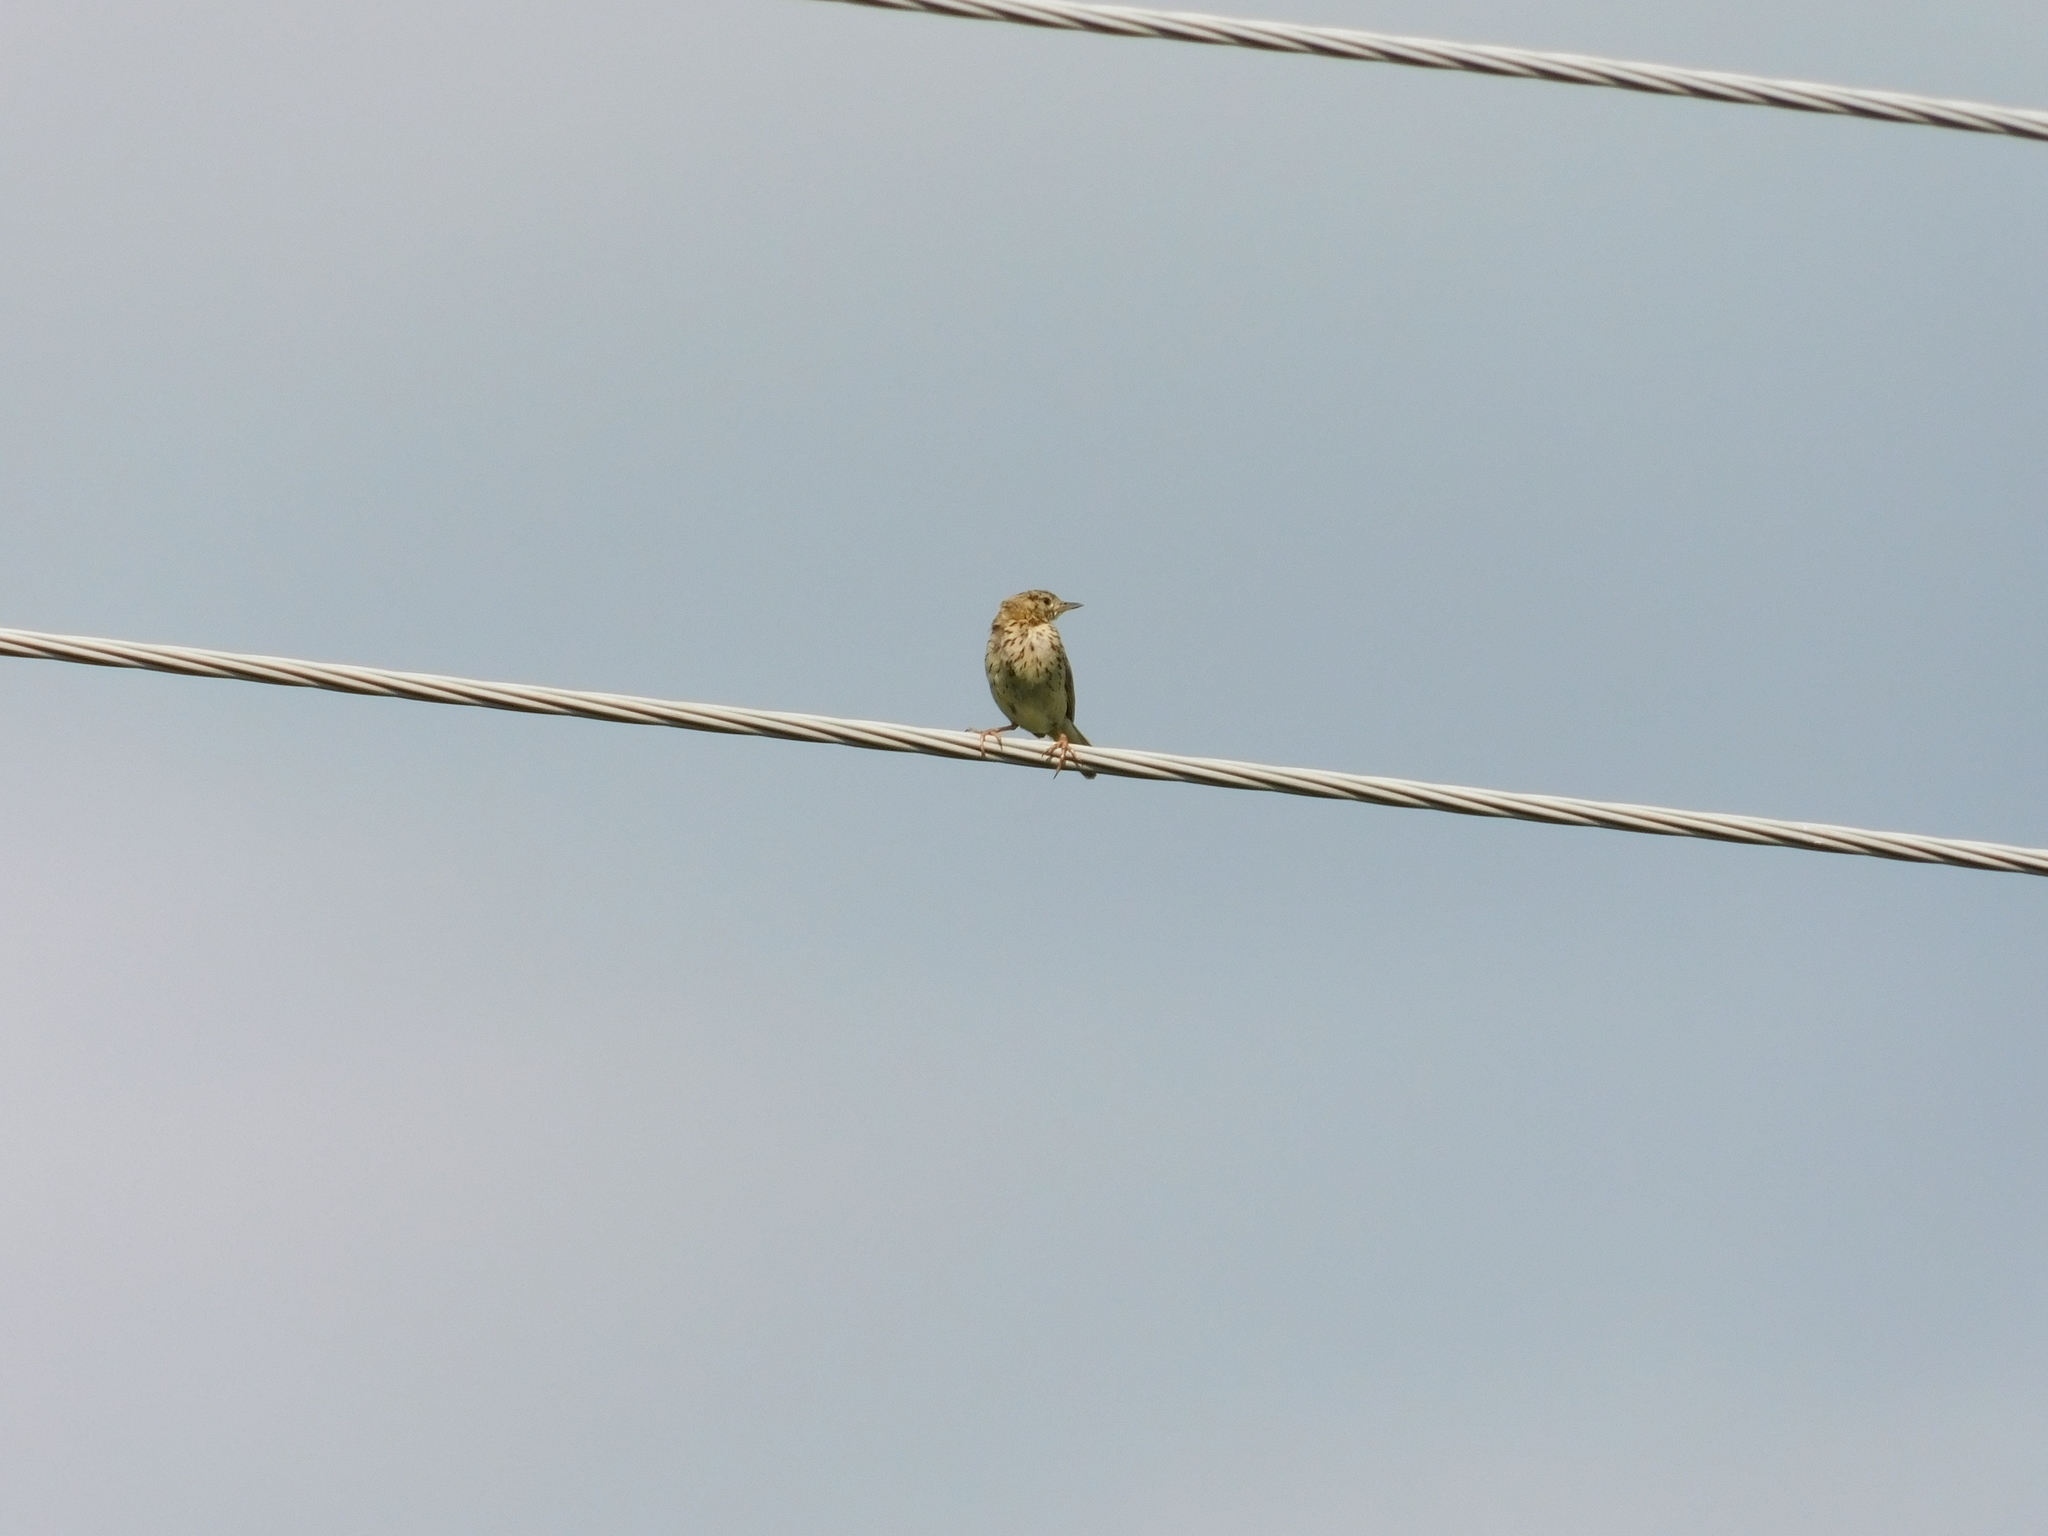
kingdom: Animalia
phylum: Chordata
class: Aves
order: Passeriformes
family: Motacillidae
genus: Anthus
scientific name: Anthus trivialis
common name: Tree pipit
